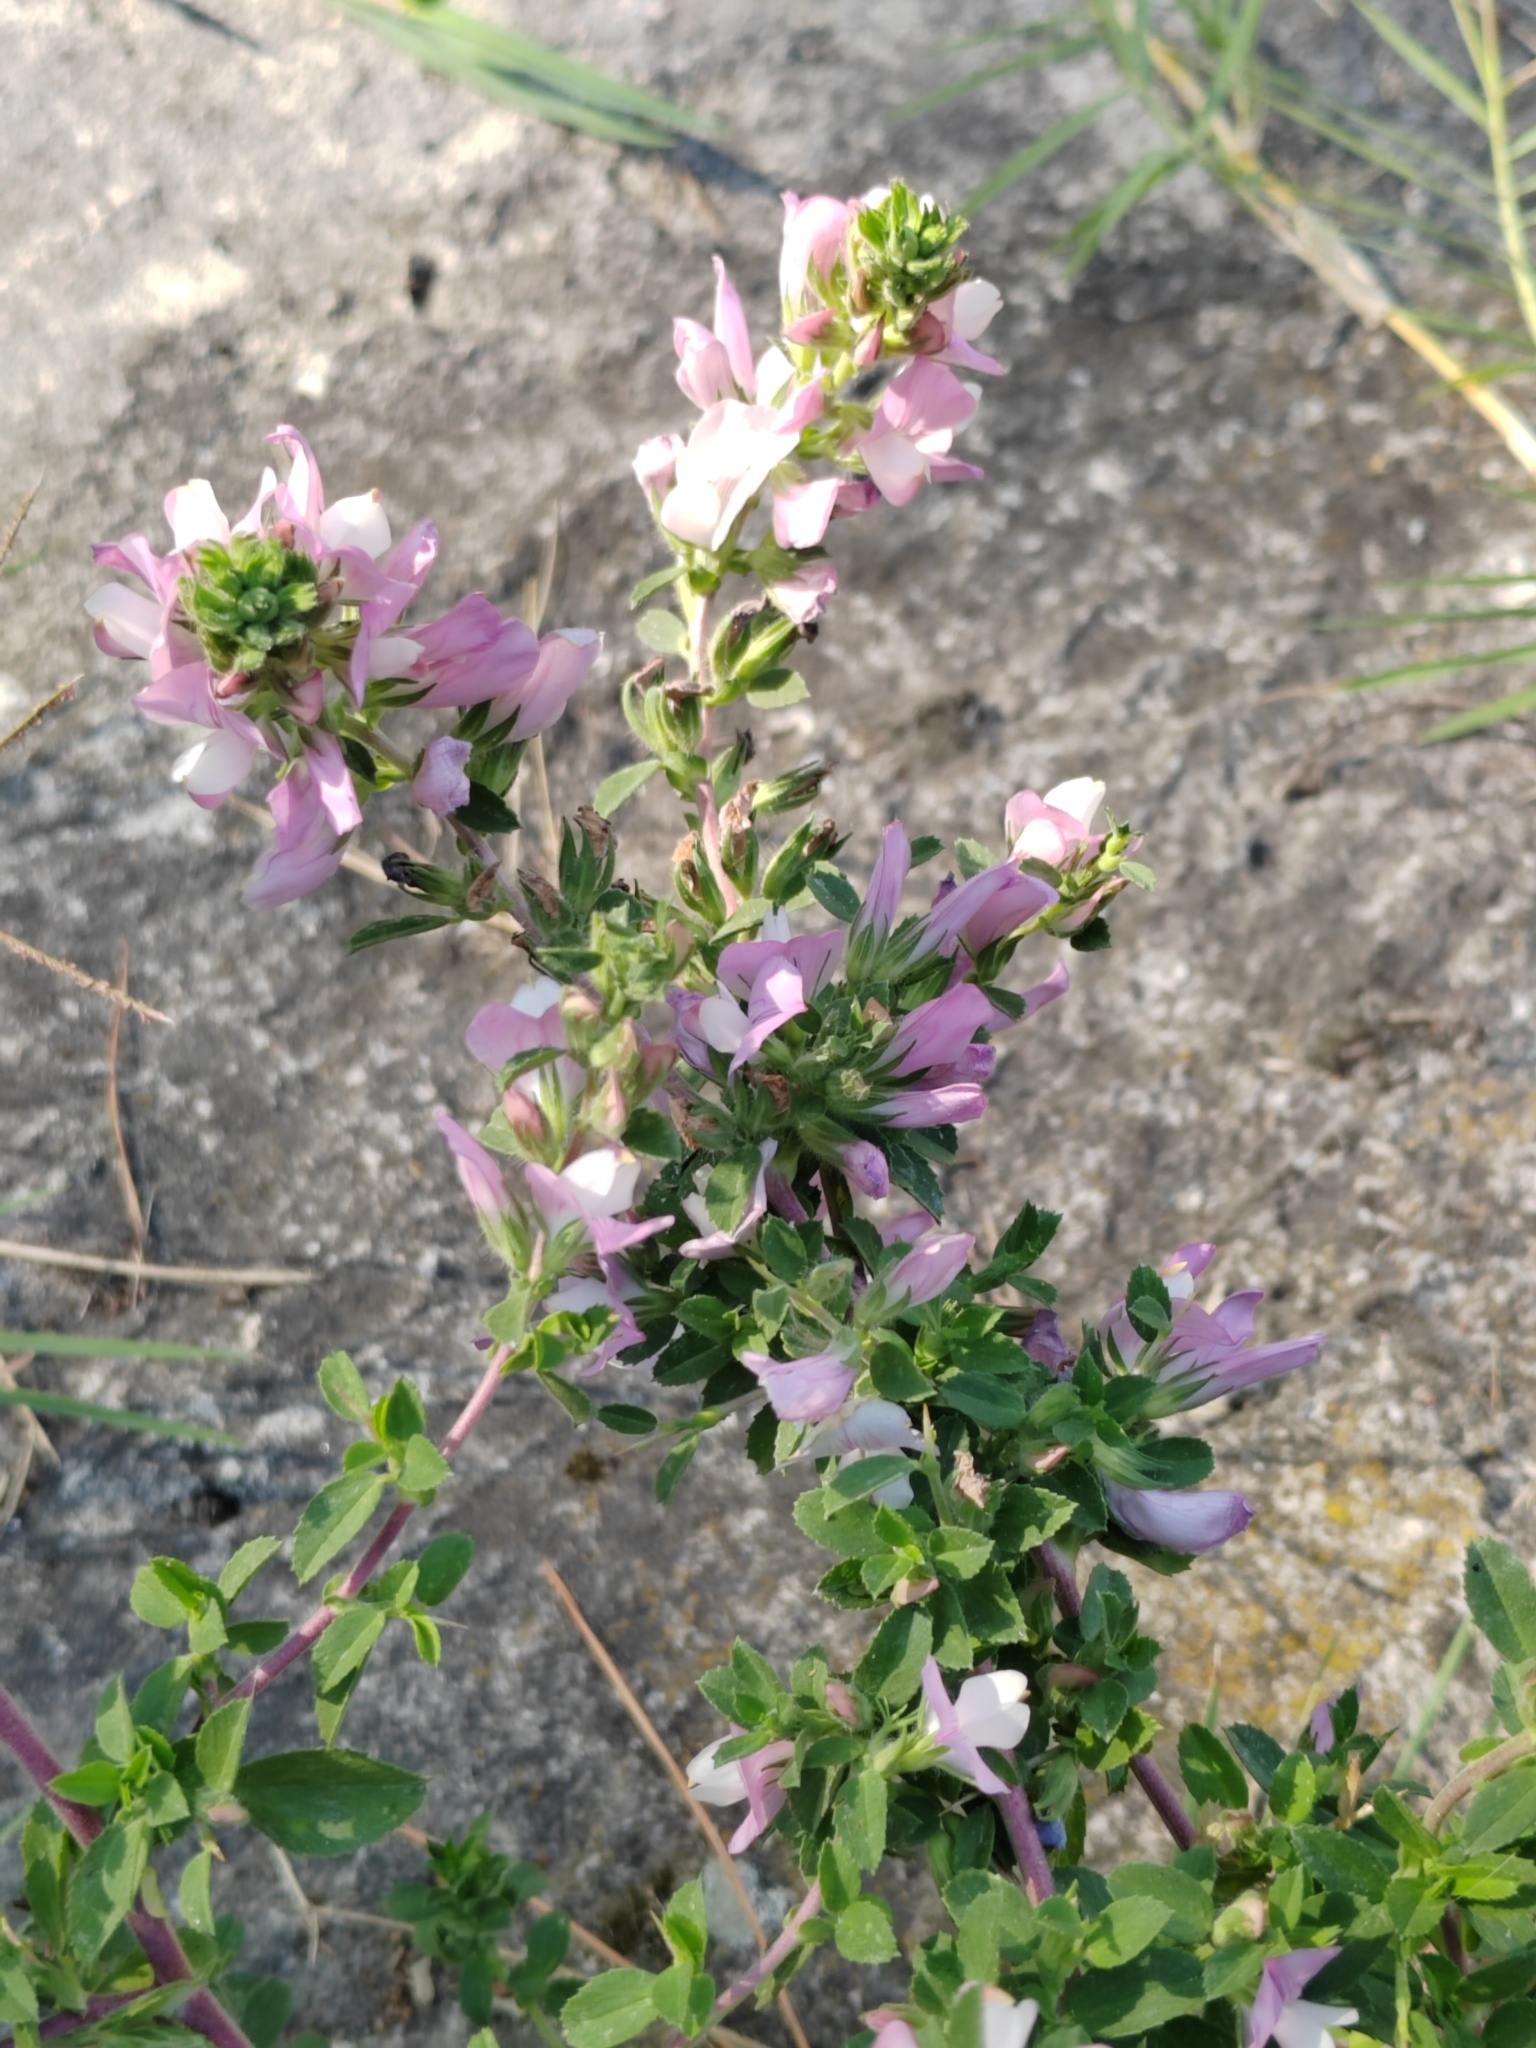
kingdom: Plantae
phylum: Tracheophyta
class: Magnoliopsida
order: Fabales
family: Fabaceae
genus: Ononis
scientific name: Ononis arvensis
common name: Field restharrow
